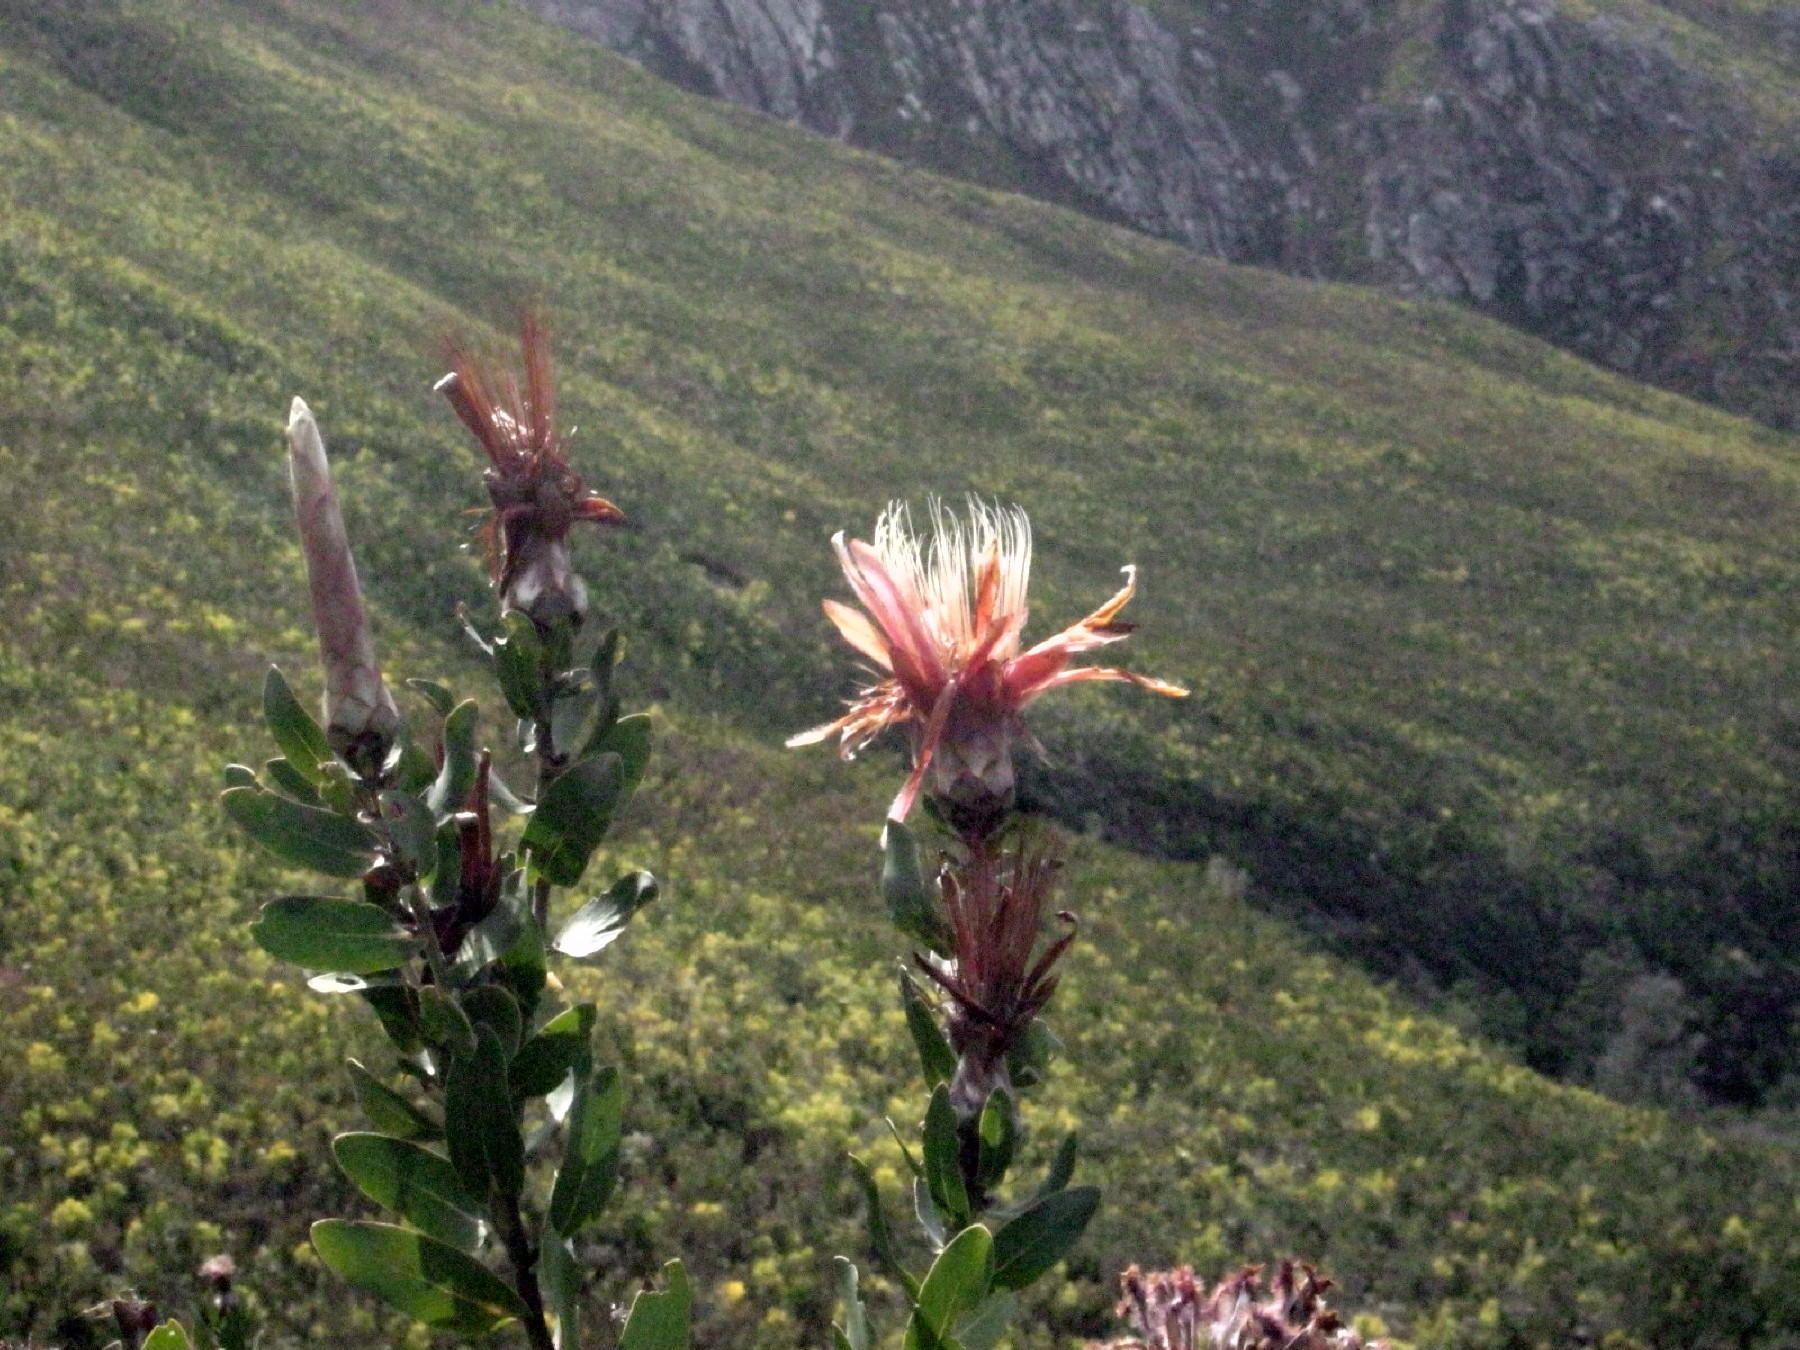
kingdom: Plantae
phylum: Tracheophyta
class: Magnoliopsida
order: Proteales
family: Proteaceae
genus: Protea
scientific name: Protea aurea
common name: Shuttlecock sugarbush
